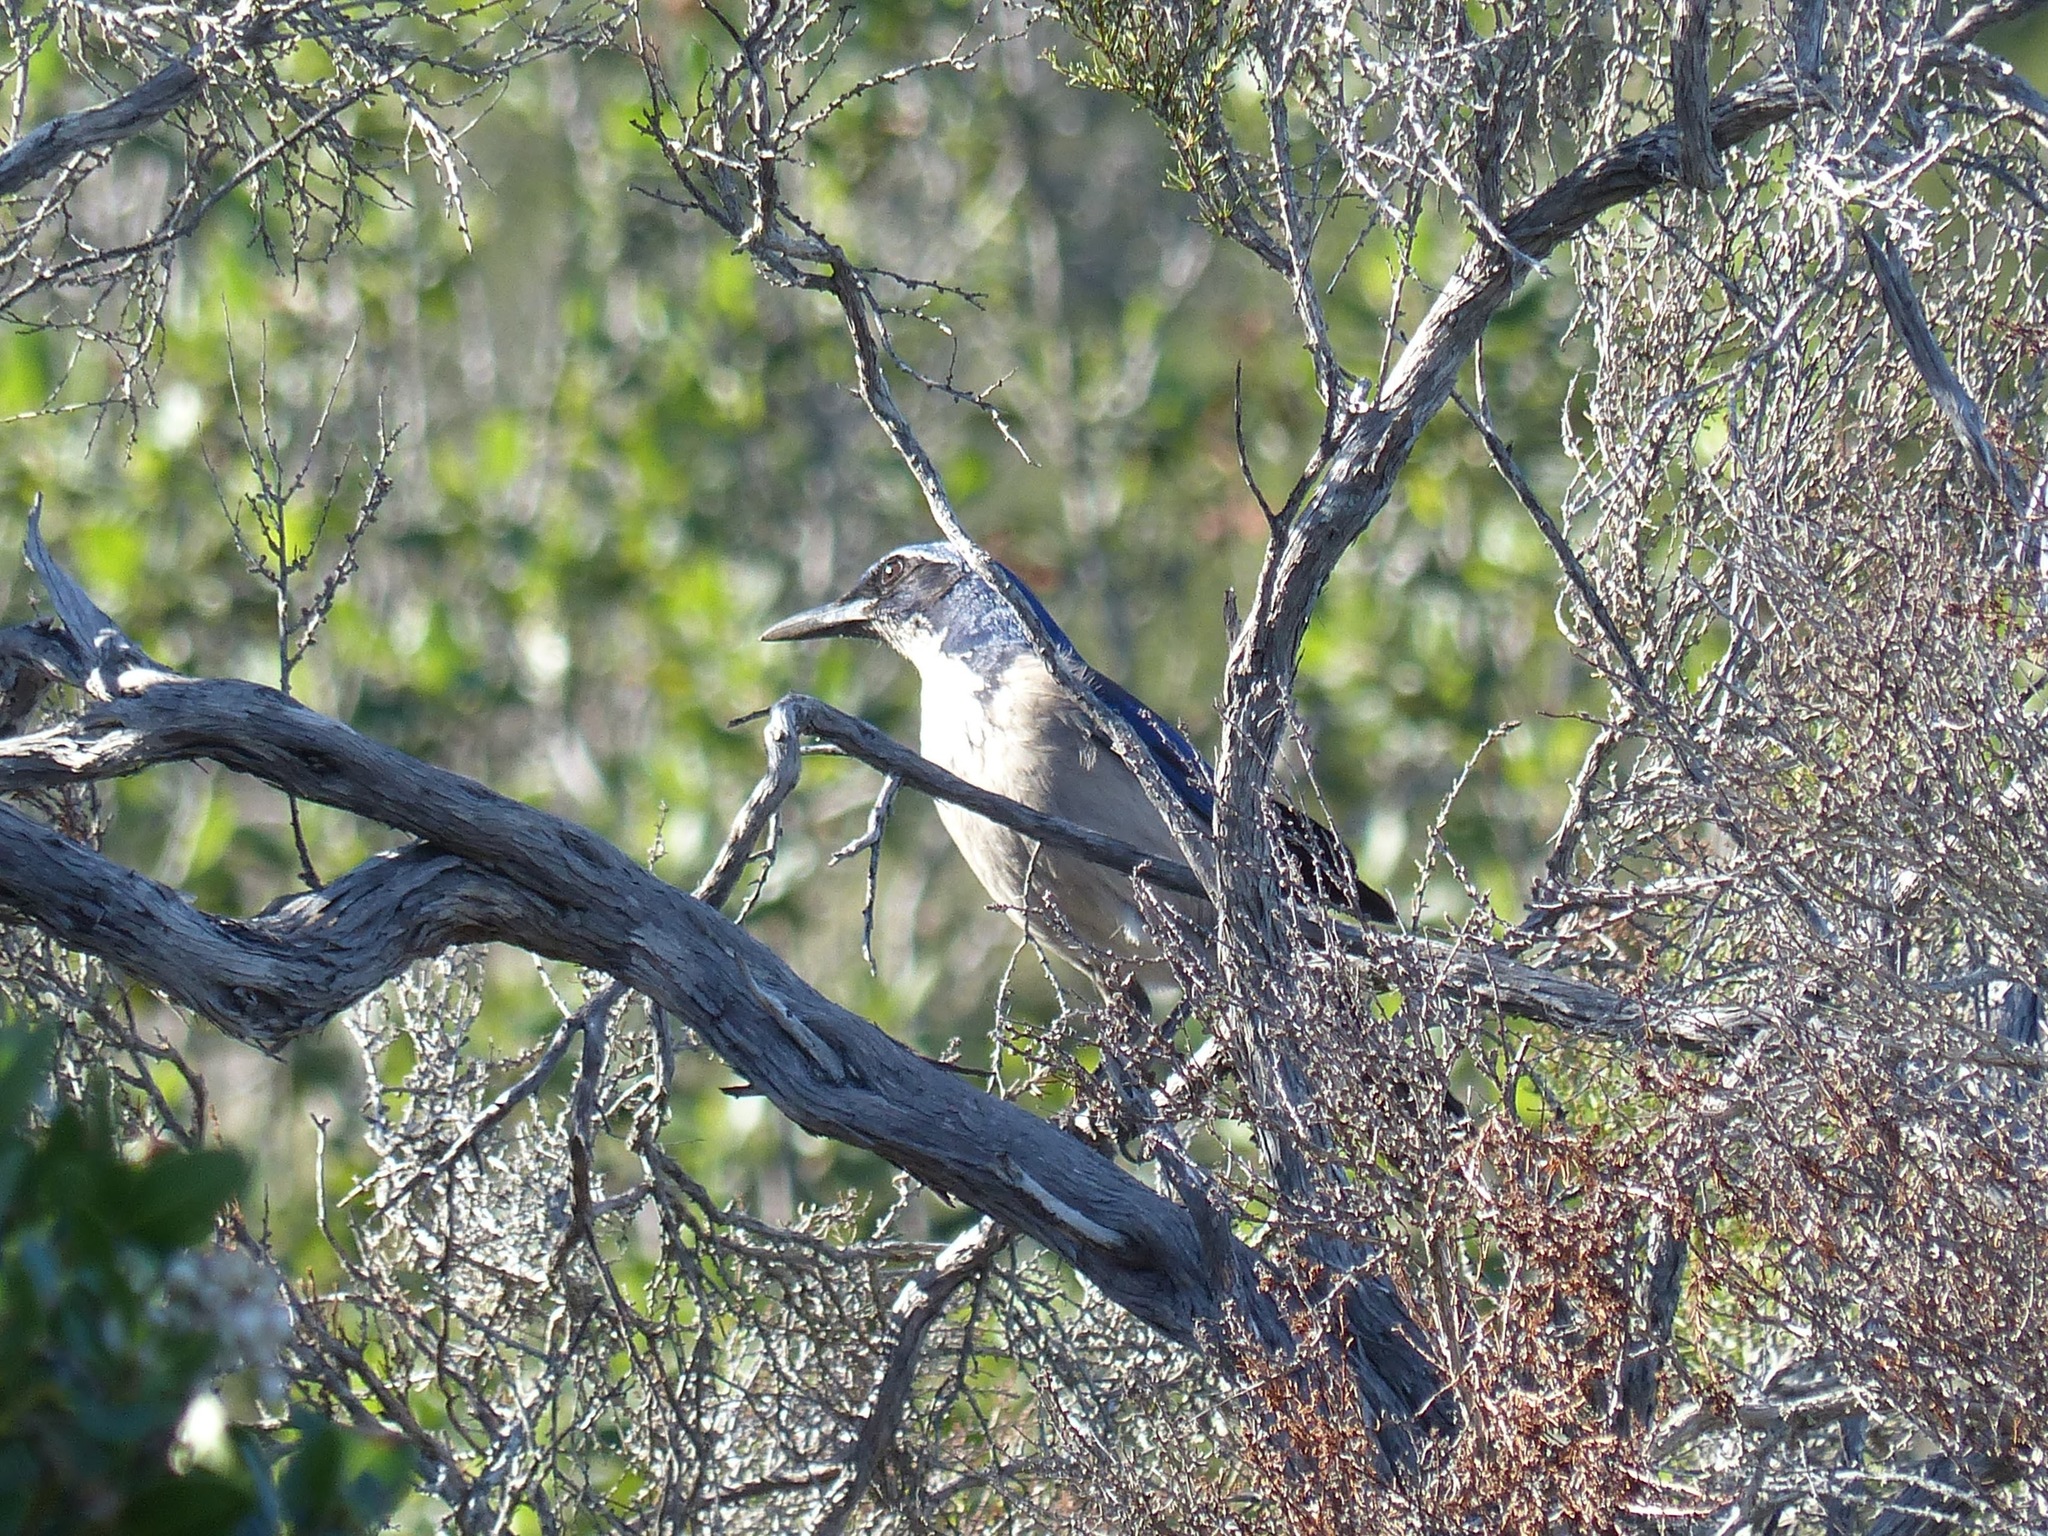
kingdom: Animalia
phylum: Chordata
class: Aves
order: Passeriformes
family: Corvidae
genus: Aphelocoma
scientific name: Aphelocoma insularis
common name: Island scrub-jay
